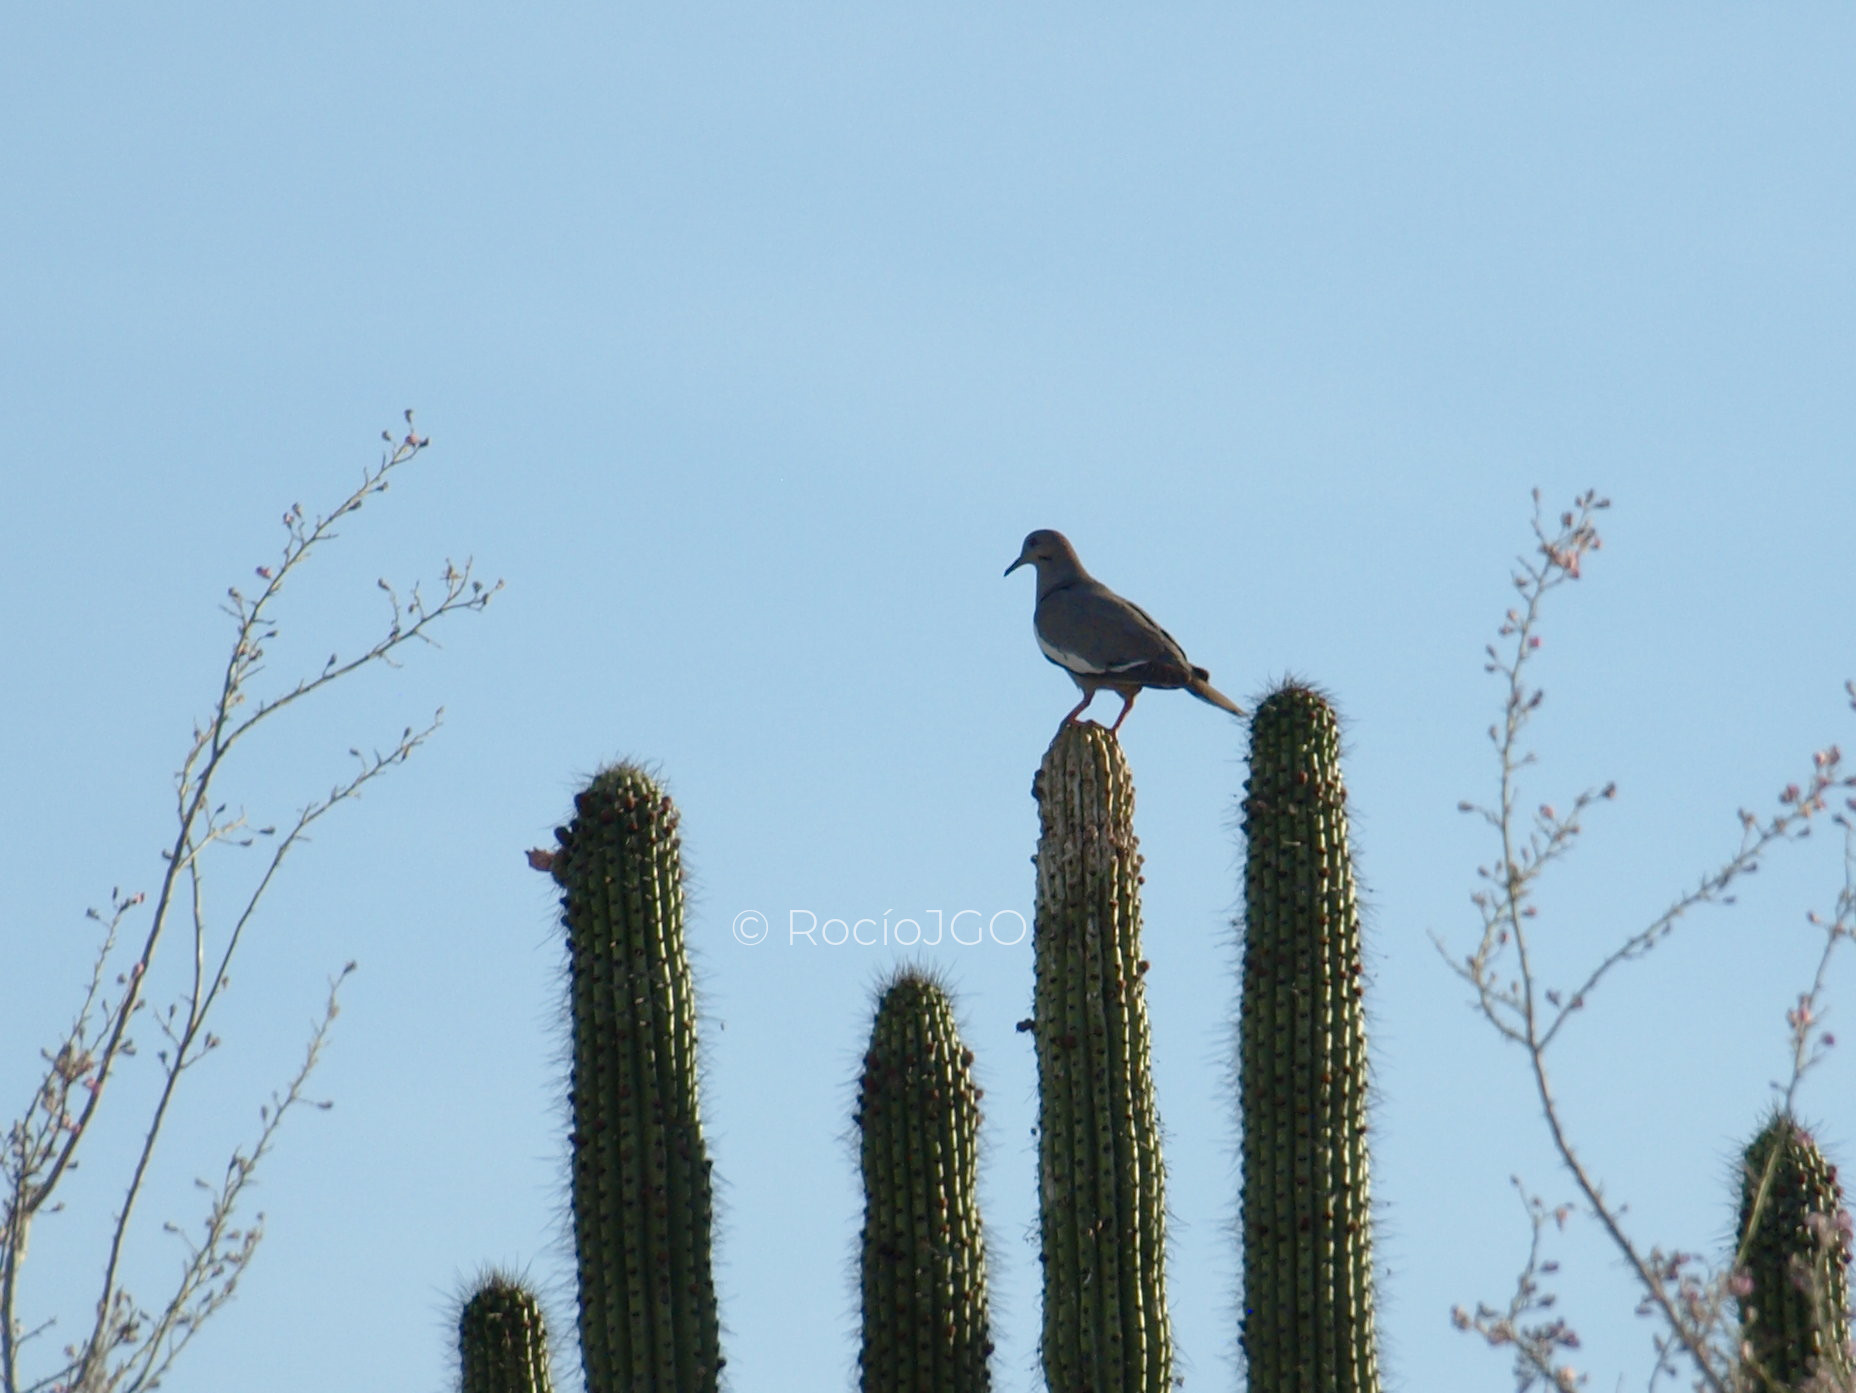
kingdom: Animalia
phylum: Chordata
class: Aves
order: Columbiformes
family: Columbidae
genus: Zenaida
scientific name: Zenaida asiatica
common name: White-winged dove
